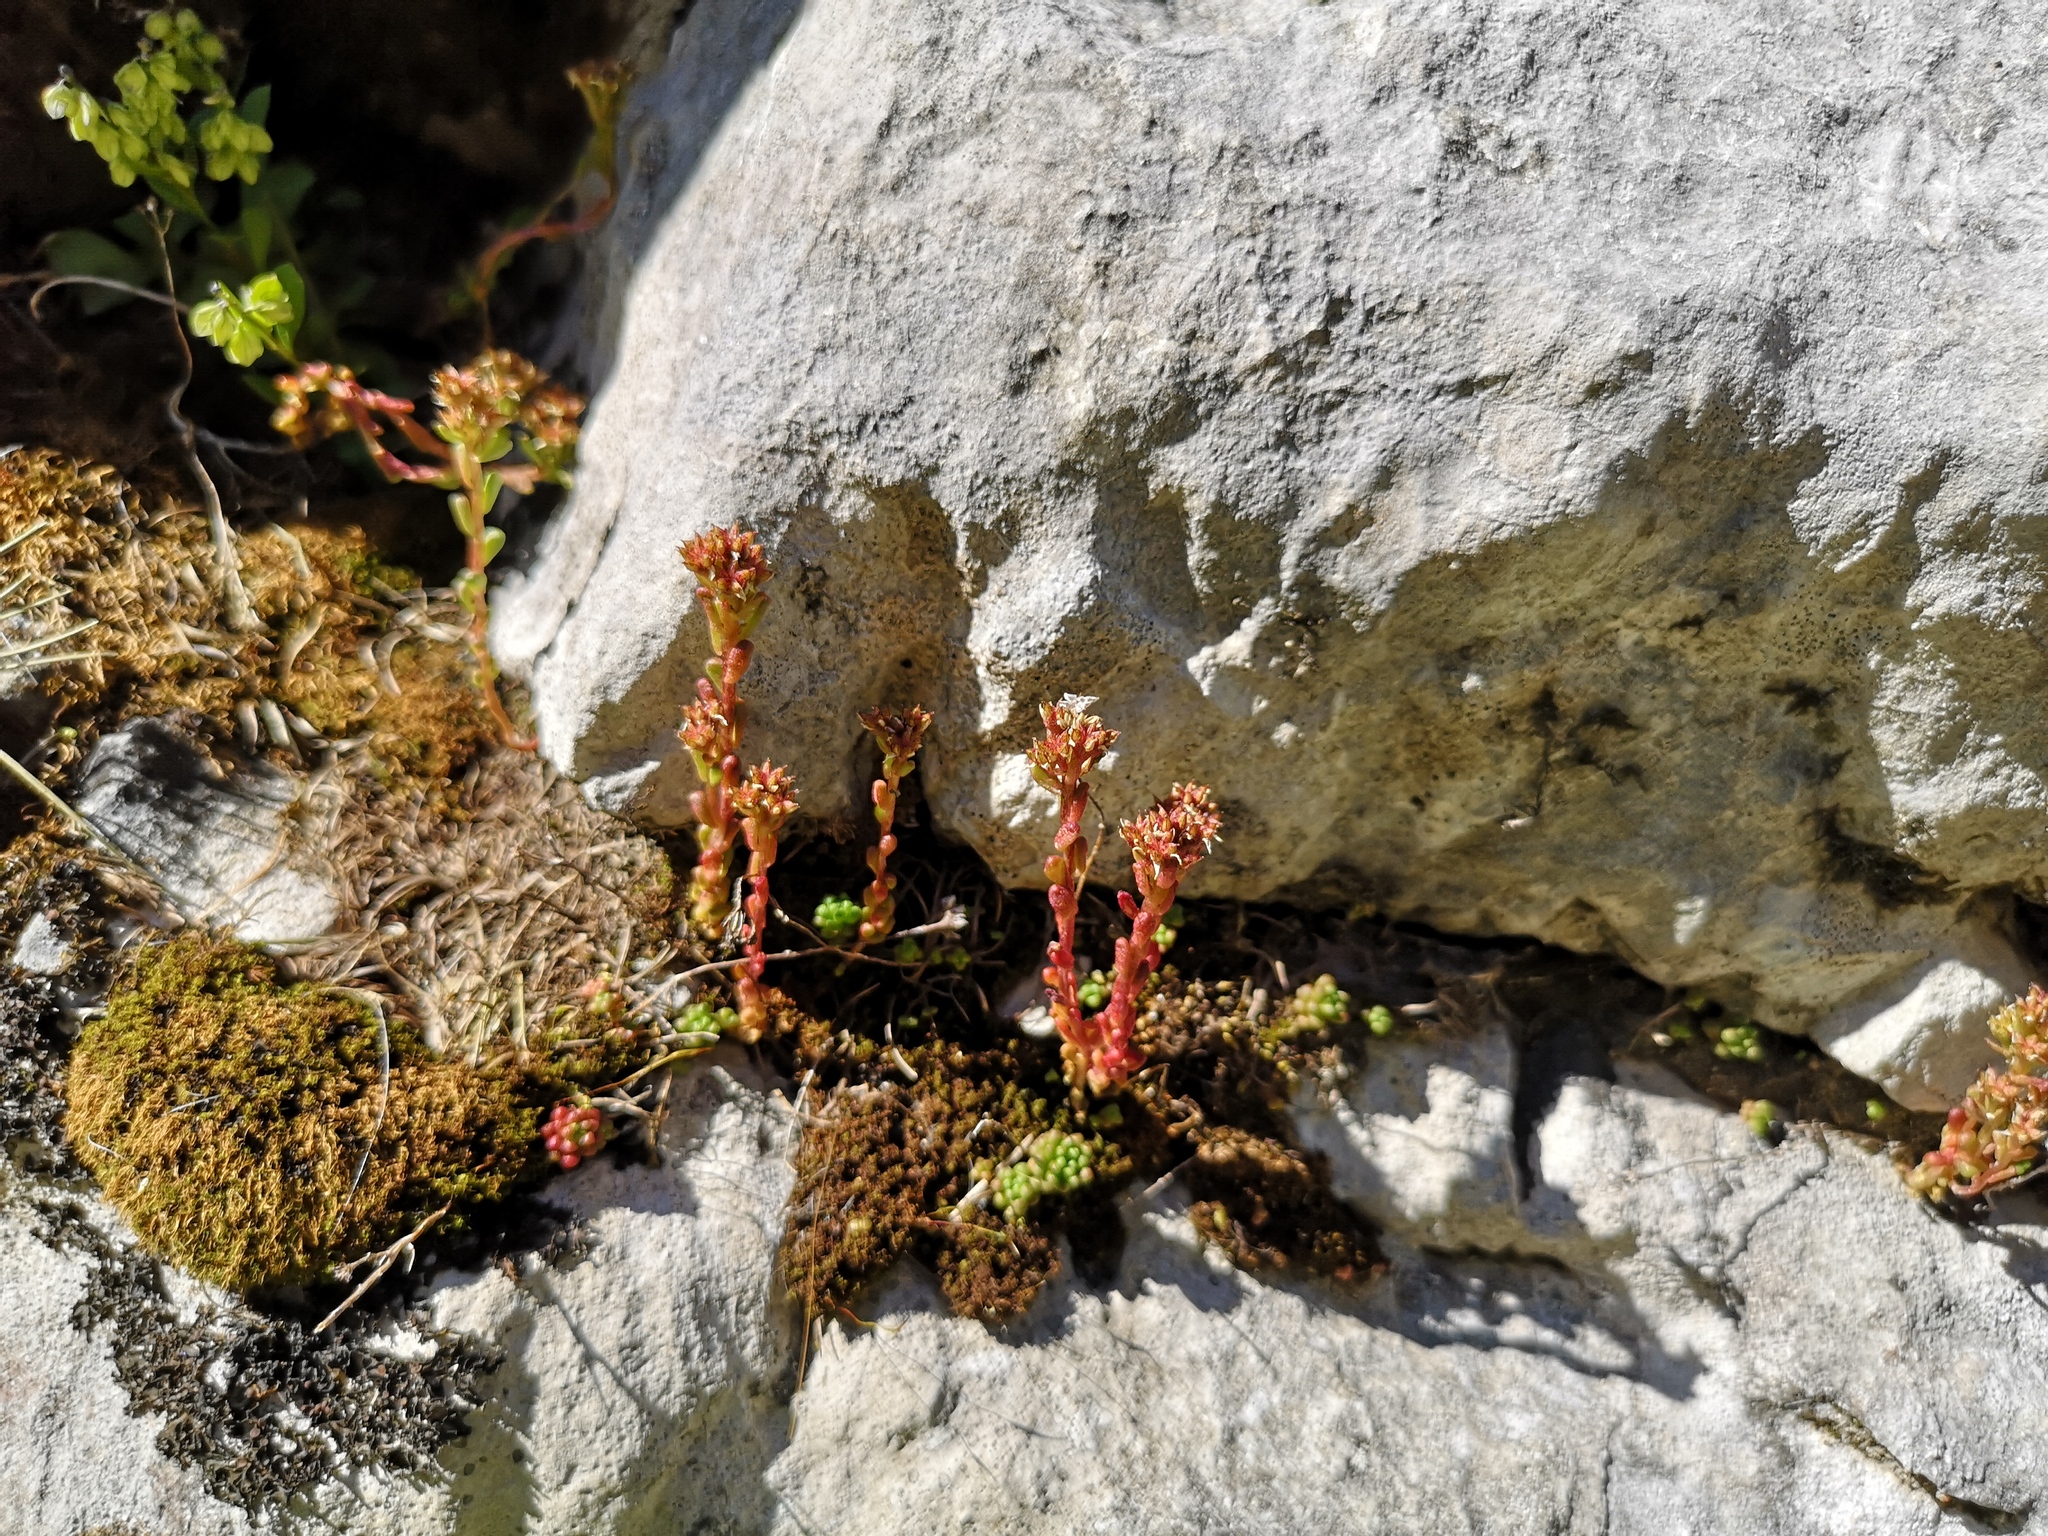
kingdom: Plantae
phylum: Tracheophyta
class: Magnoliopsida
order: Saxifragales
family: Crassulaceae
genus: Sedum
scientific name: Sedum atratum
